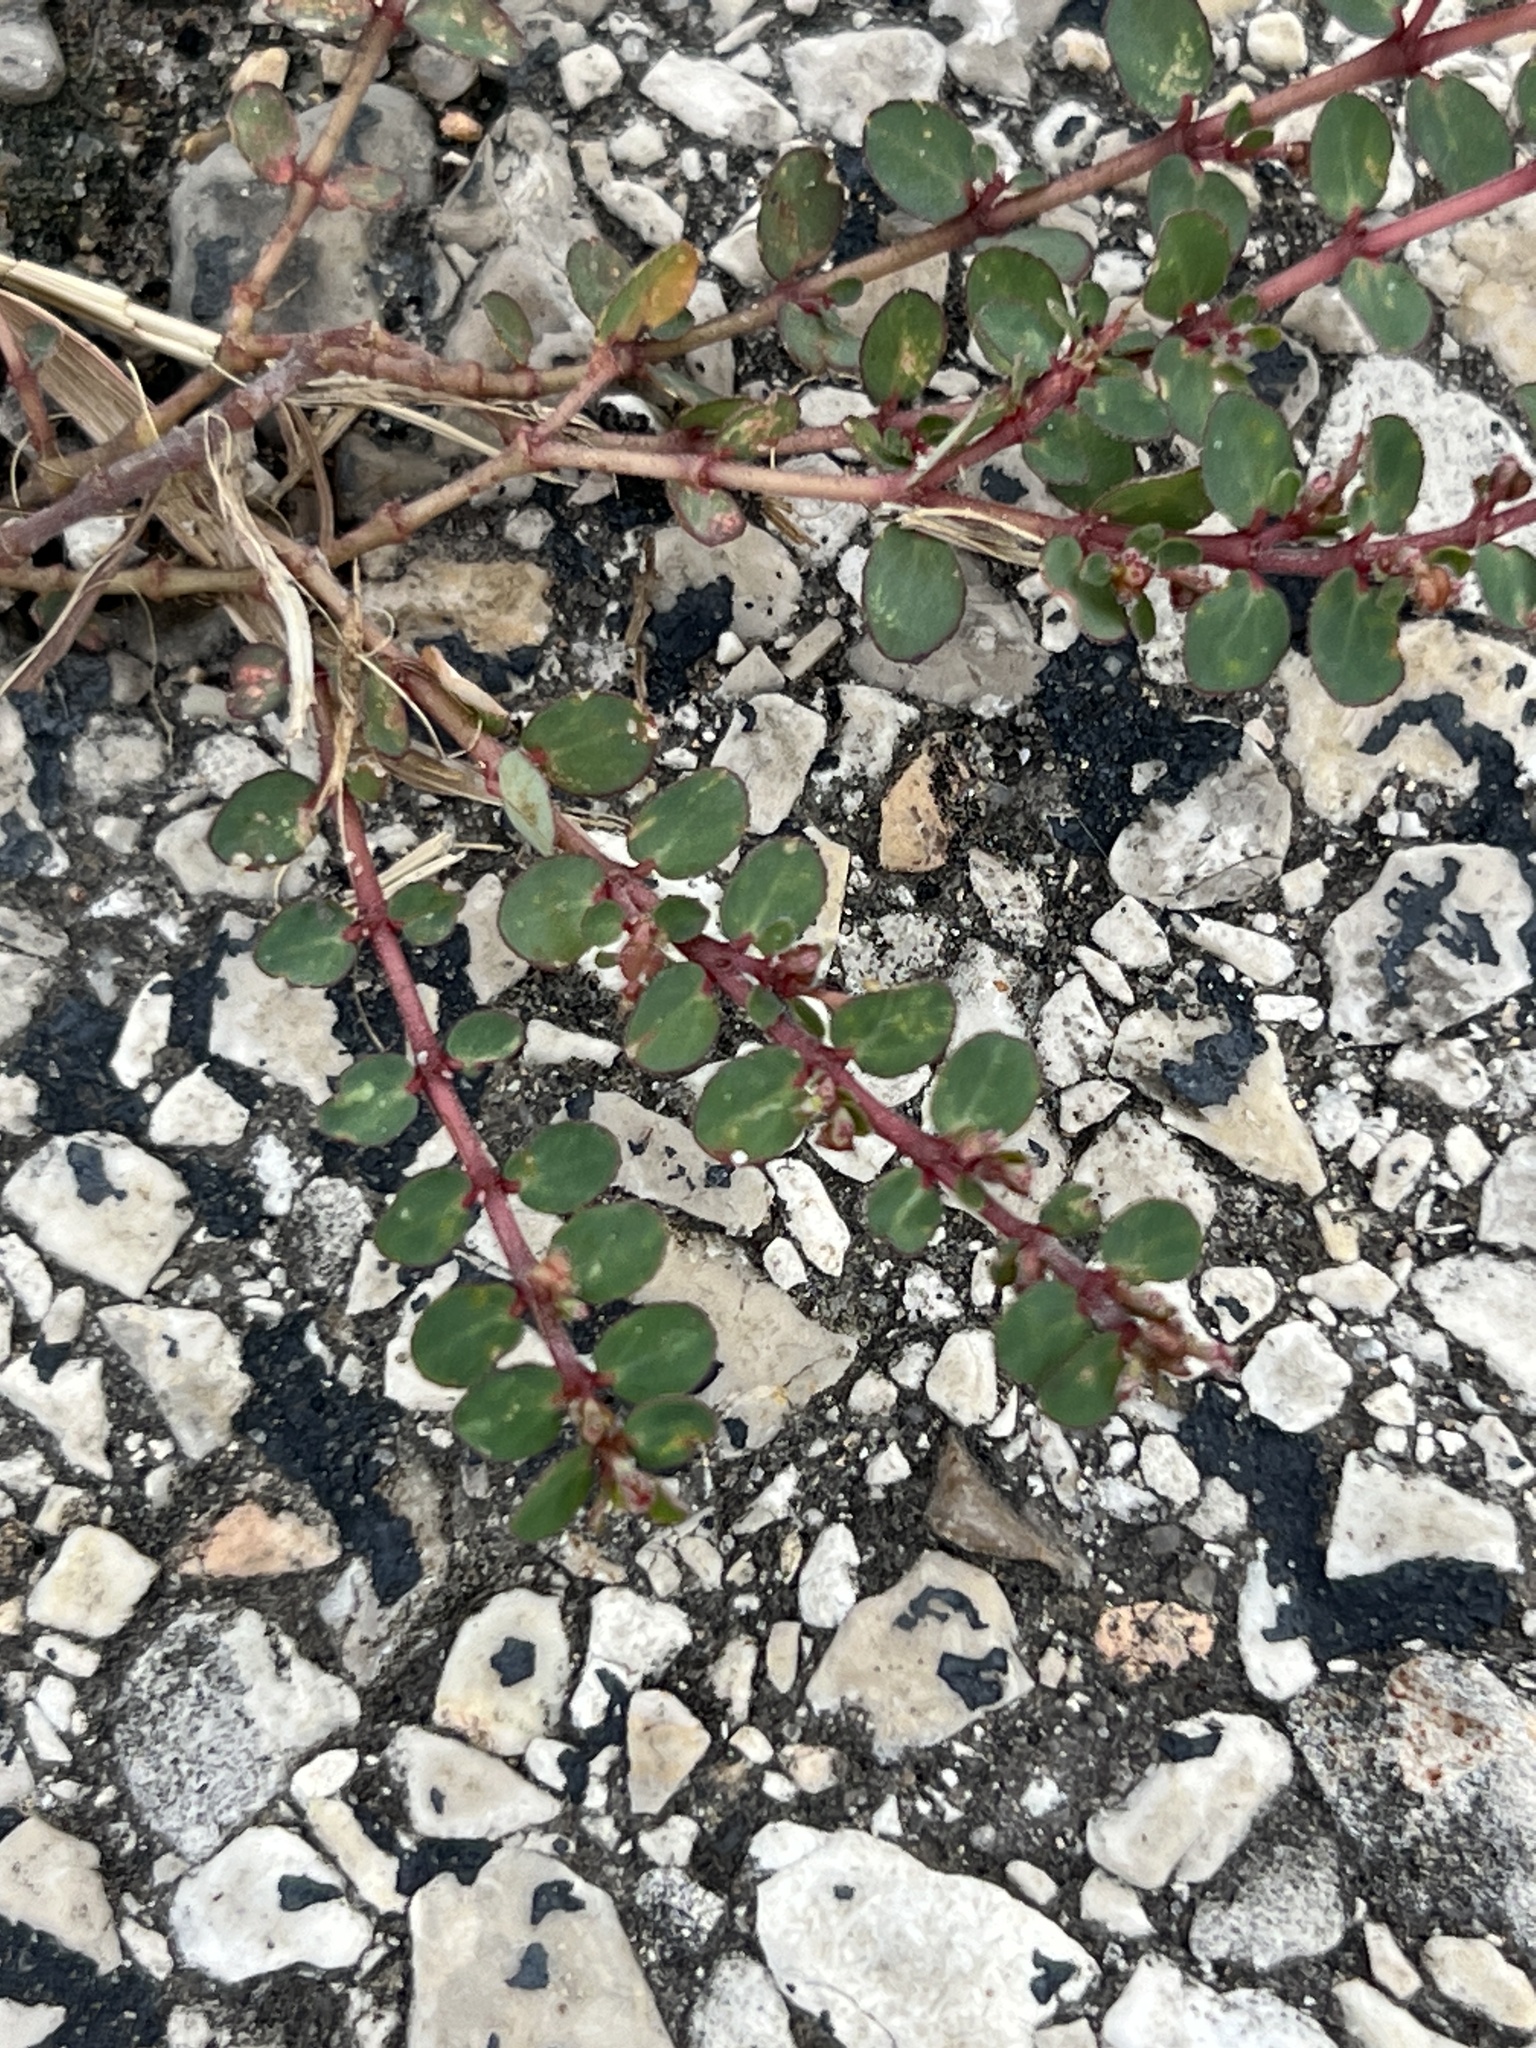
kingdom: Plantae
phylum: Tracheophyta
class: Magnoliopsida
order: Malpighiales
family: Euphorbiaceae
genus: Euphorbia
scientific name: Euphorbia prostrata
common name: Prostrate sandmat
